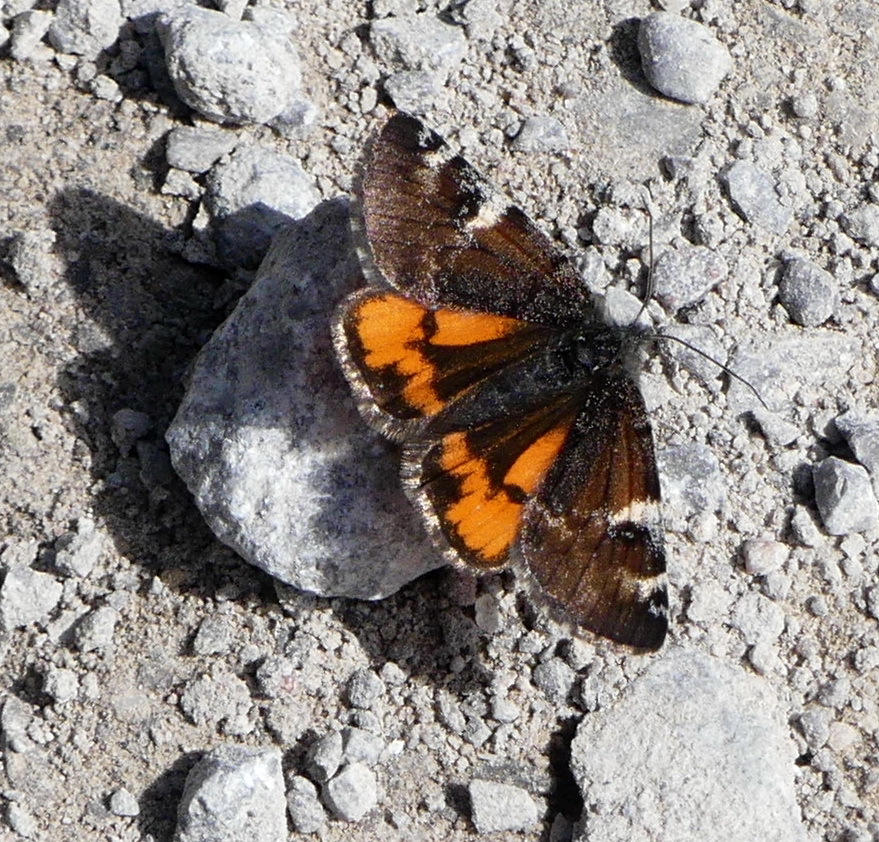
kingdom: Animalia
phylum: Arthropoda
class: Insecta
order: Lepidoptera
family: Geometridae
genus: Archiearis
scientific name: Archiearis infans
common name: First born geometer
